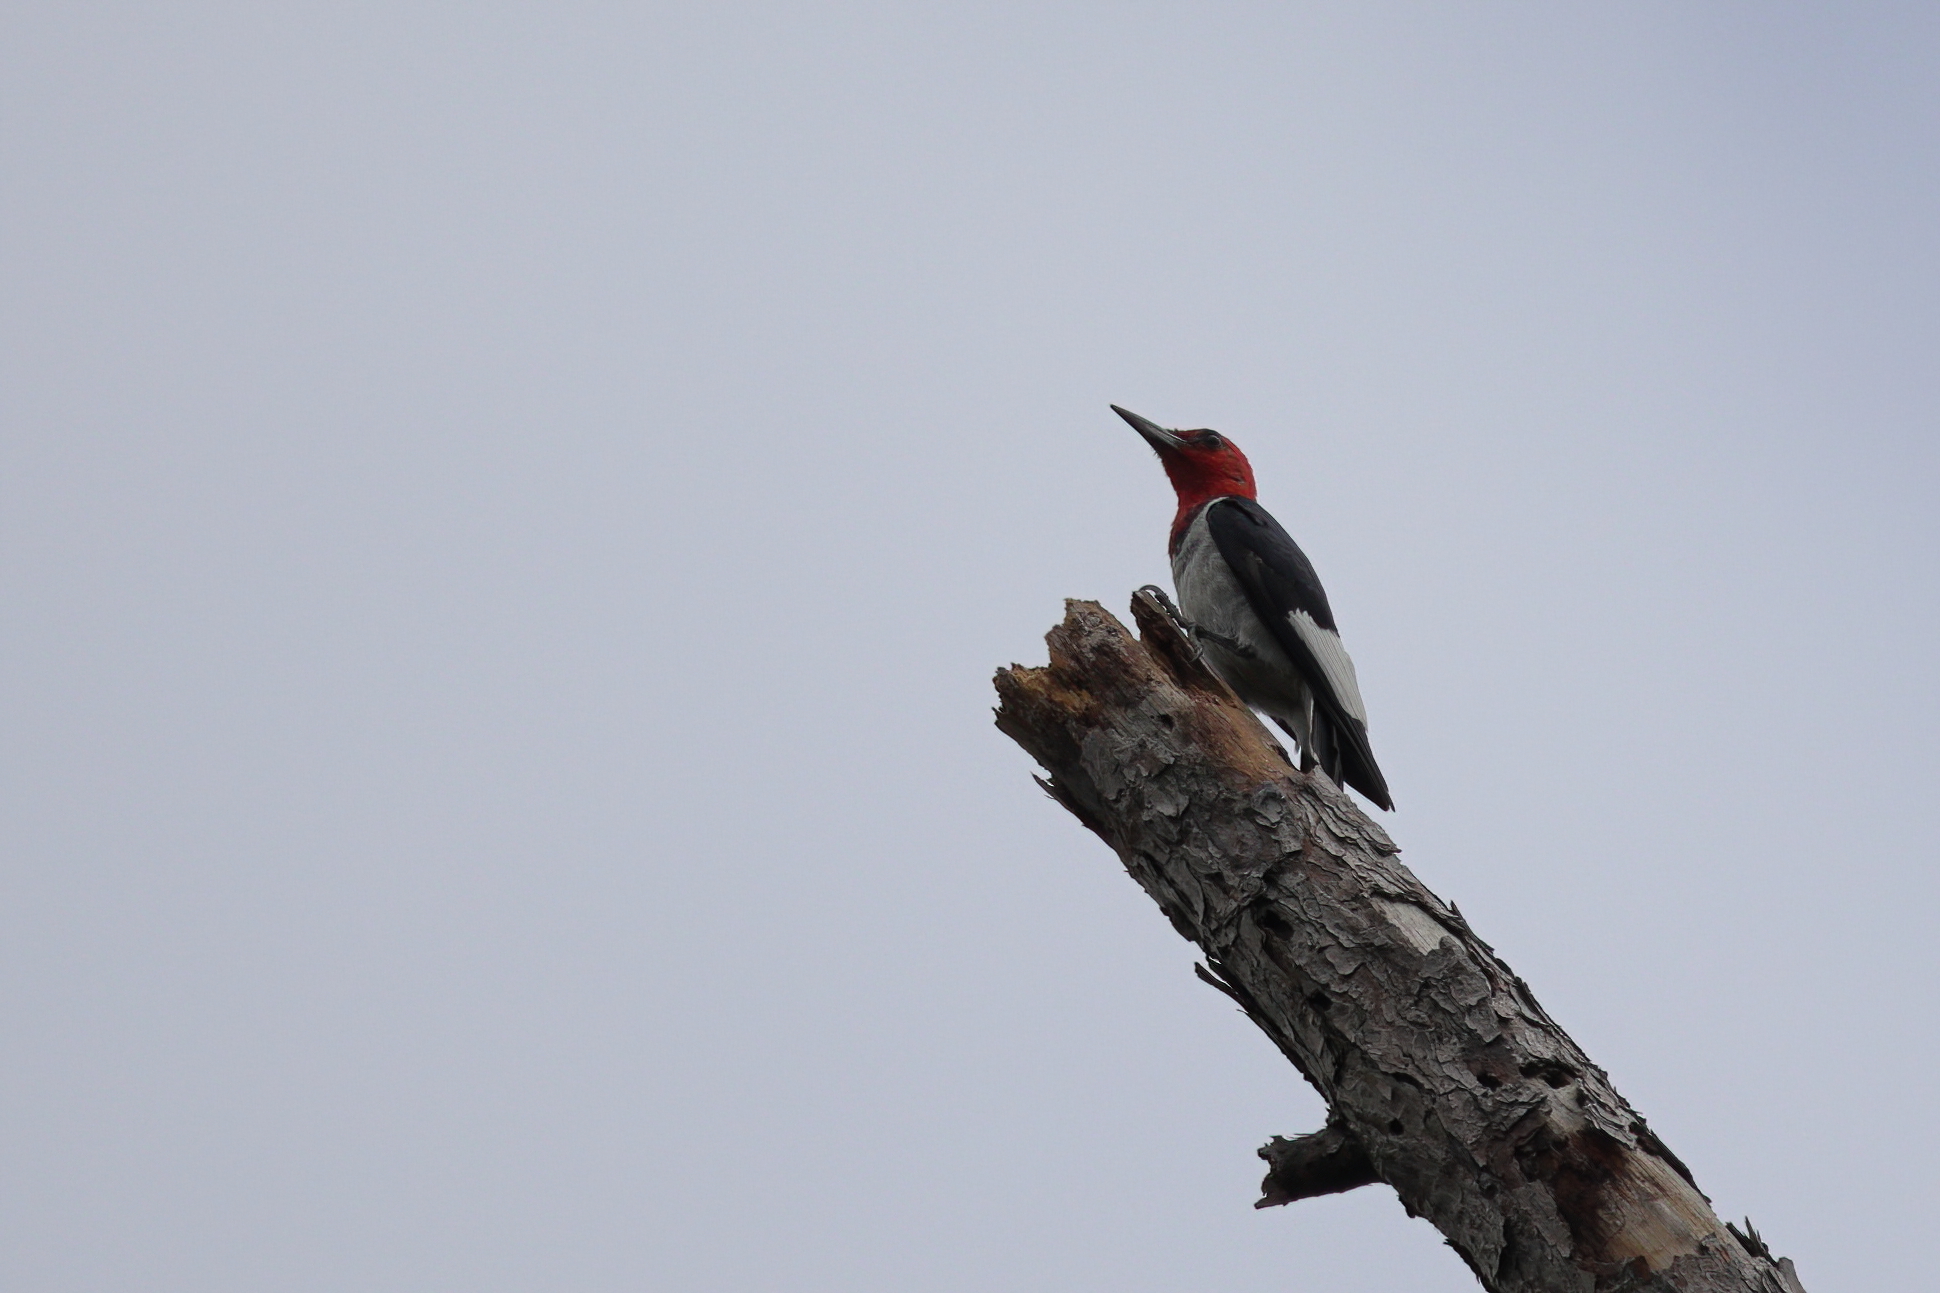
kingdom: Animalia
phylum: Chordata
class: Aves
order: Piciformes
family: Picidae
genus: Melanerpes
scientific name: Melanerpes erythrocephalus
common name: Red-headed woodpecker
